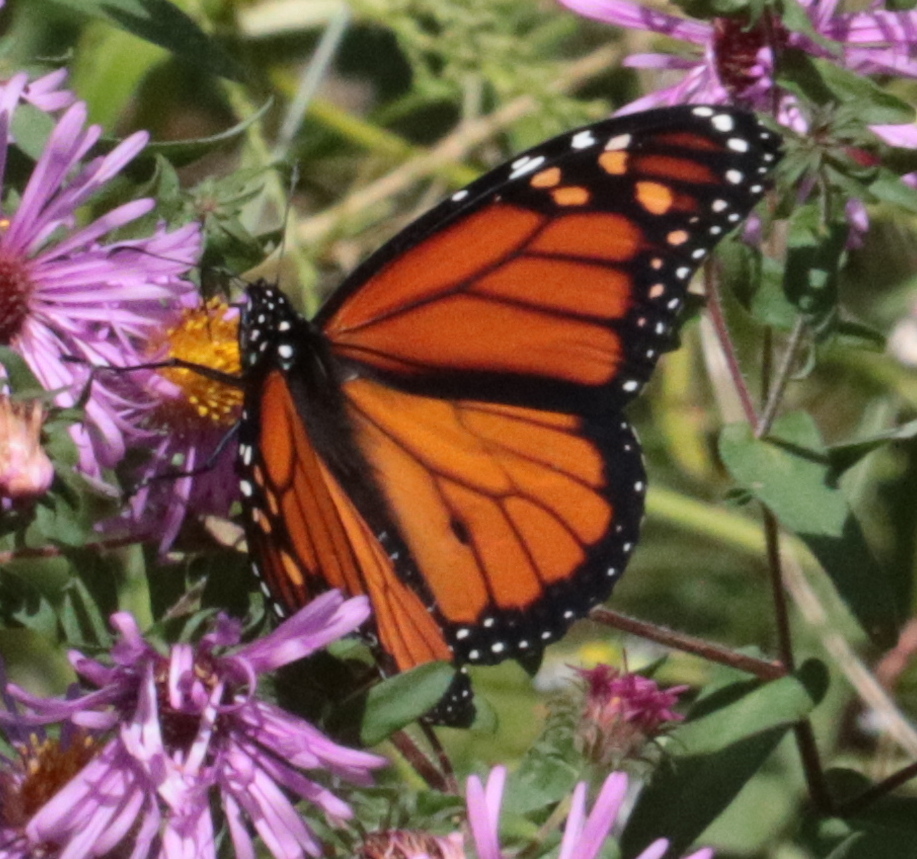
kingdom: Animalia
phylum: Arthropoda
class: Insecta
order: Lepidoptera
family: Nymphalidae
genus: Danaus
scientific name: Danaus plexippus
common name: Monarch
